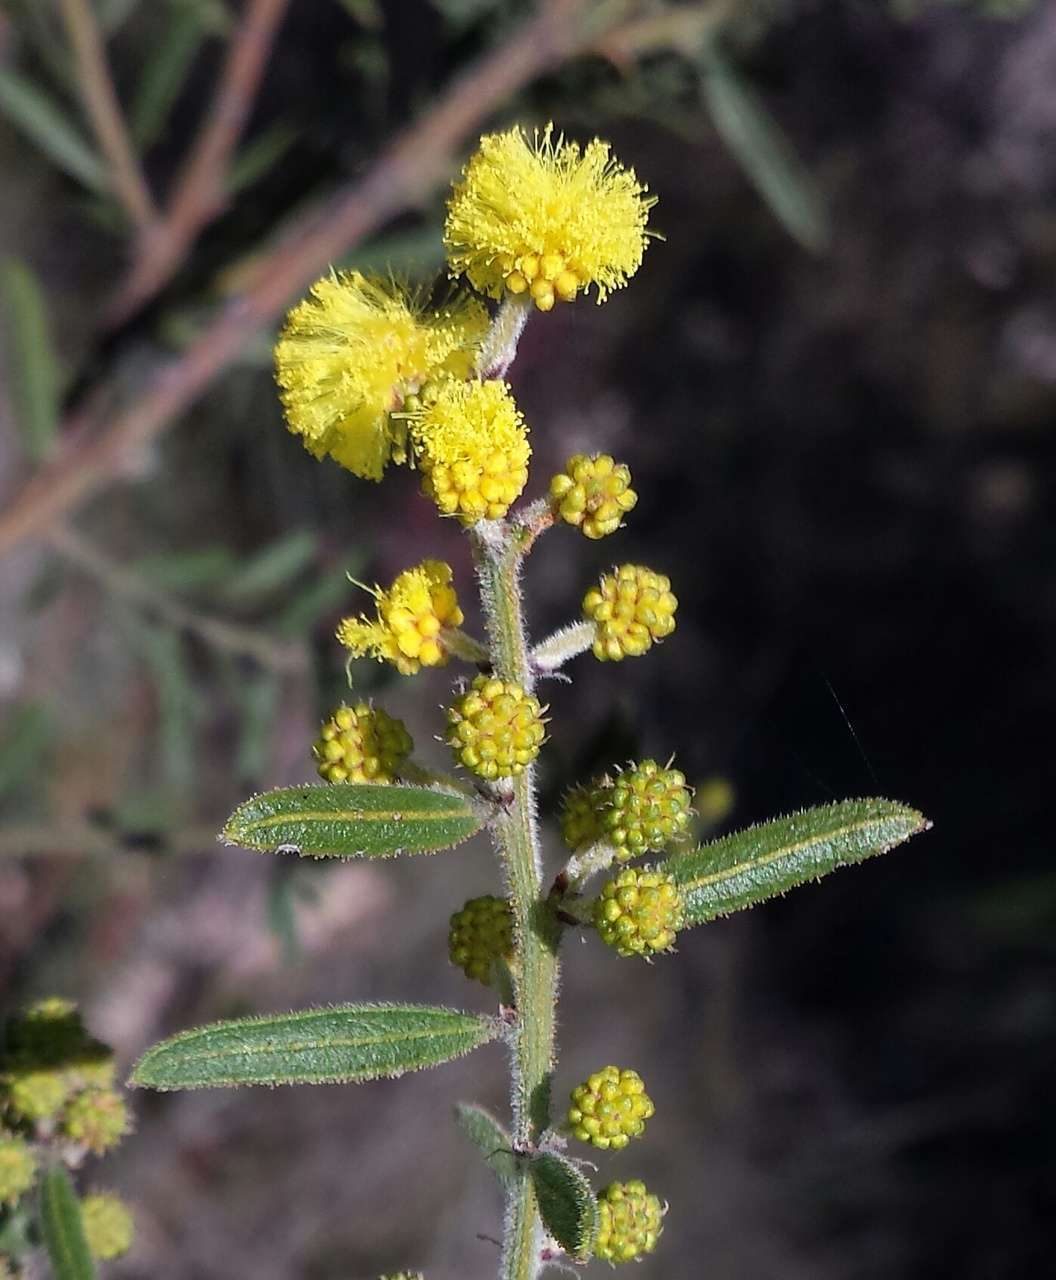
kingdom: Plantae
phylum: Tracheophyta
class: Magnoliopsida
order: Fabales
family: Fabaceae
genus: Acacia
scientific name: Acacia aspera
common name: Rough wattle
